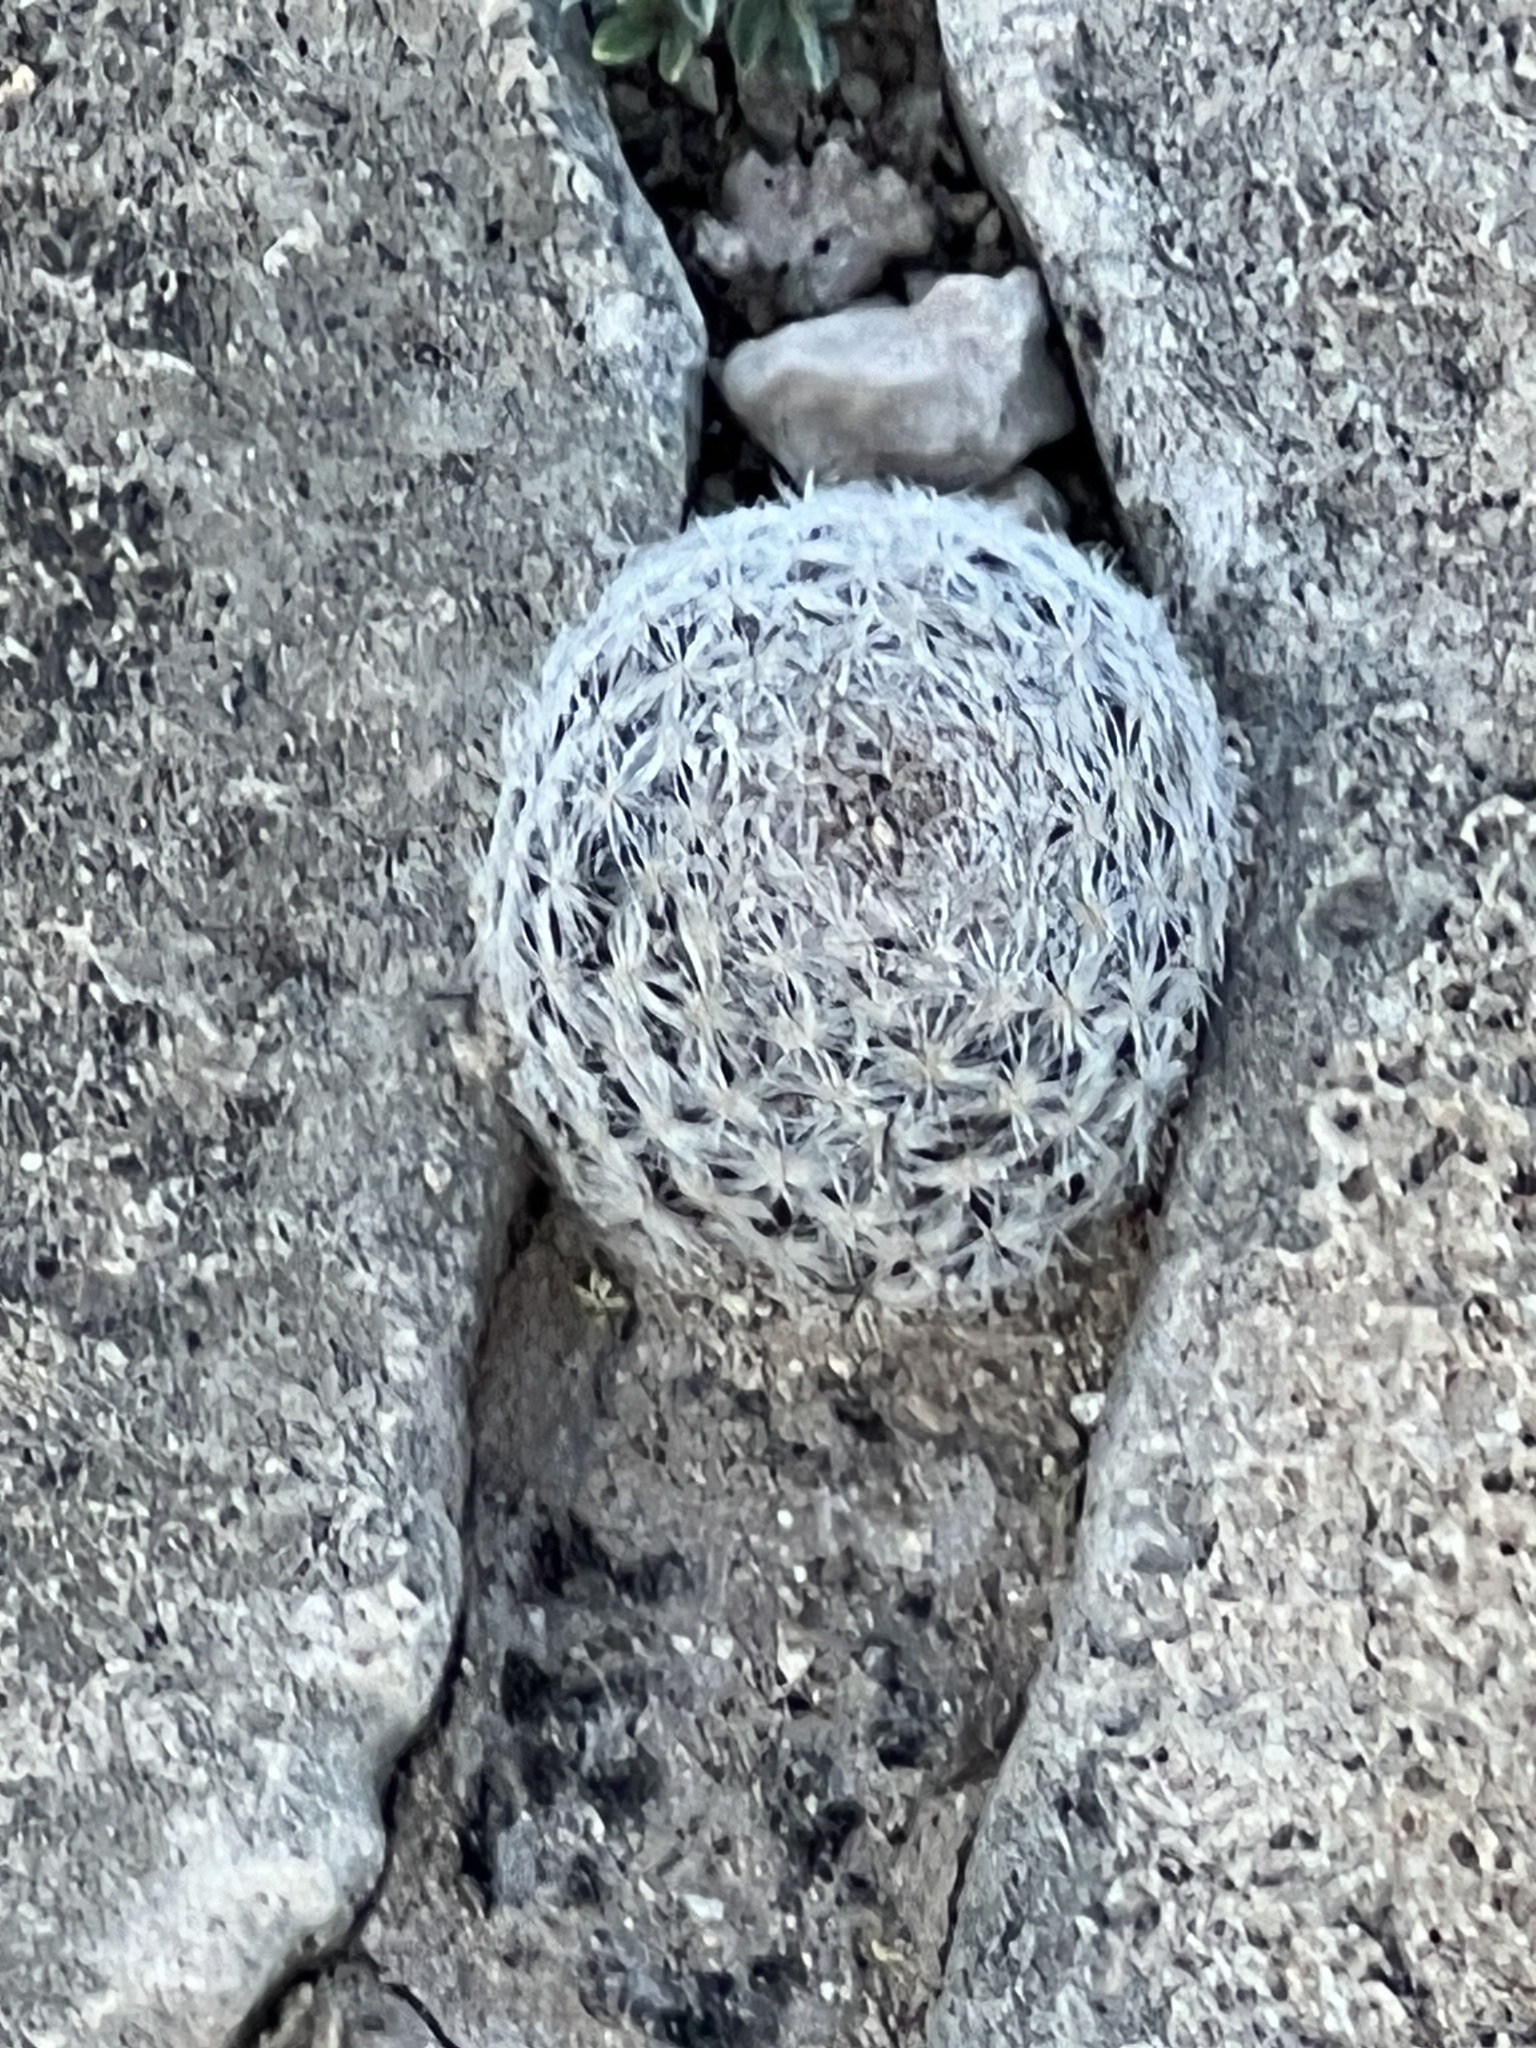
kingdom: Plantae
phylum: Tracheophyta
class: Magnoliopsida
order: Caryophyllales
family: Cactaceae
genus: Mammillaria
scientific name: Mammillaria lasiacantha
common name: Lace-spine nipple cactus
